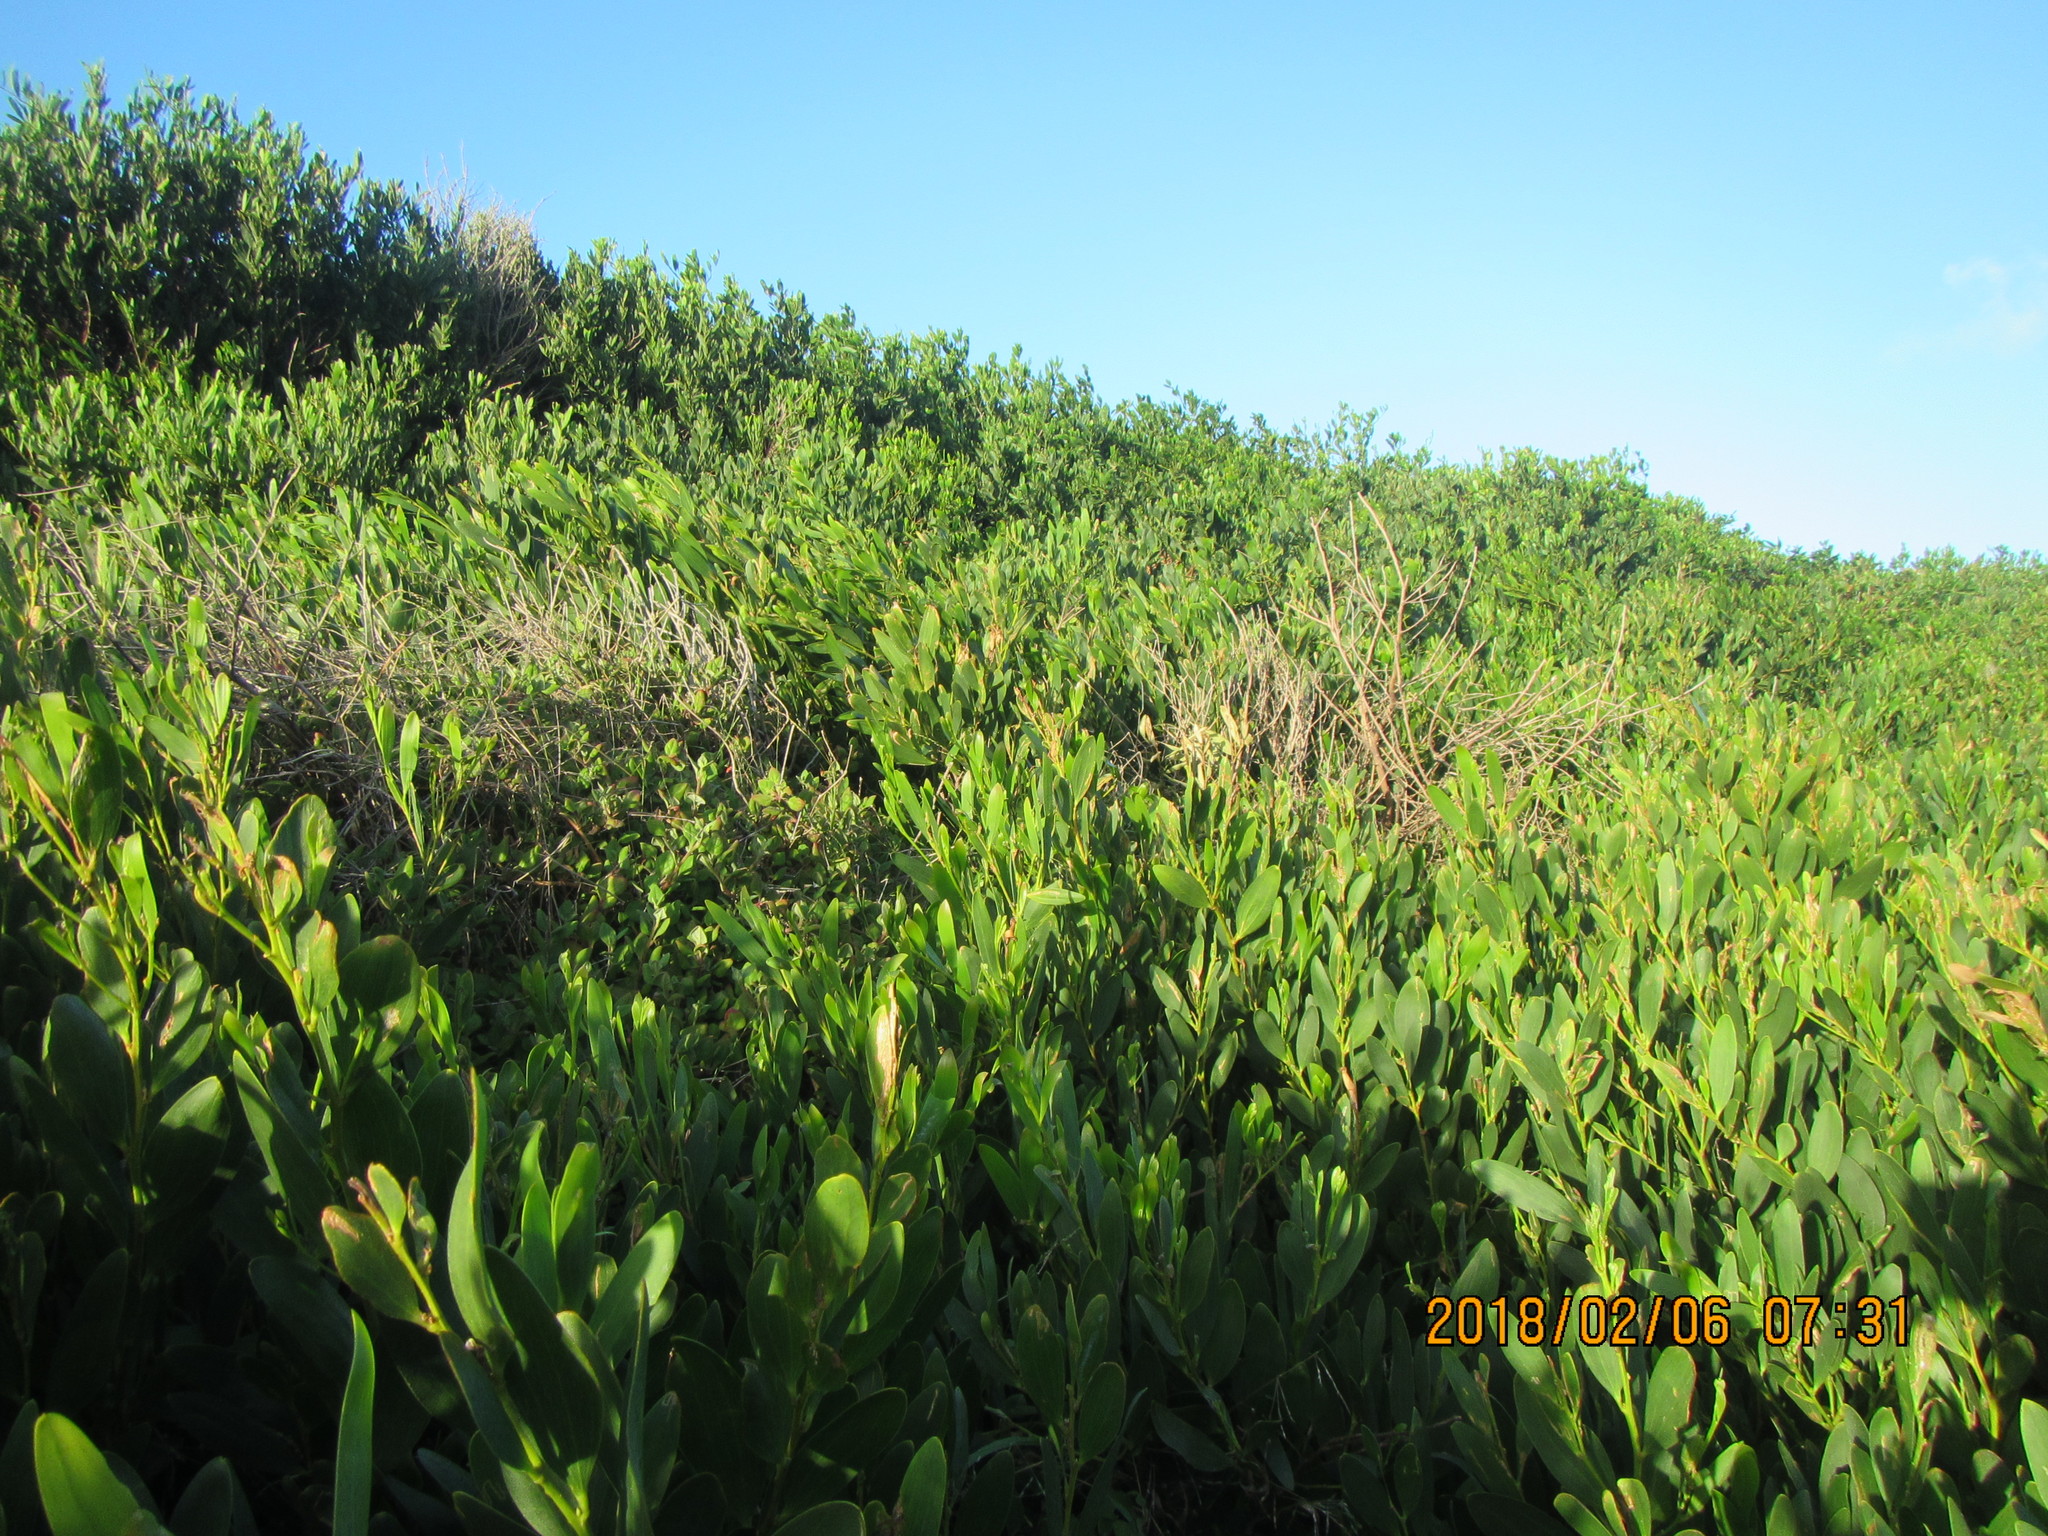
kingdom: Plantae
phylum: Tracheophyta
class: Magnoliopsida
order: Fabales
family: Fabaceae
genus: Acacia
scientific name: Acacia longifolia
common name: Sydney golden wattle
